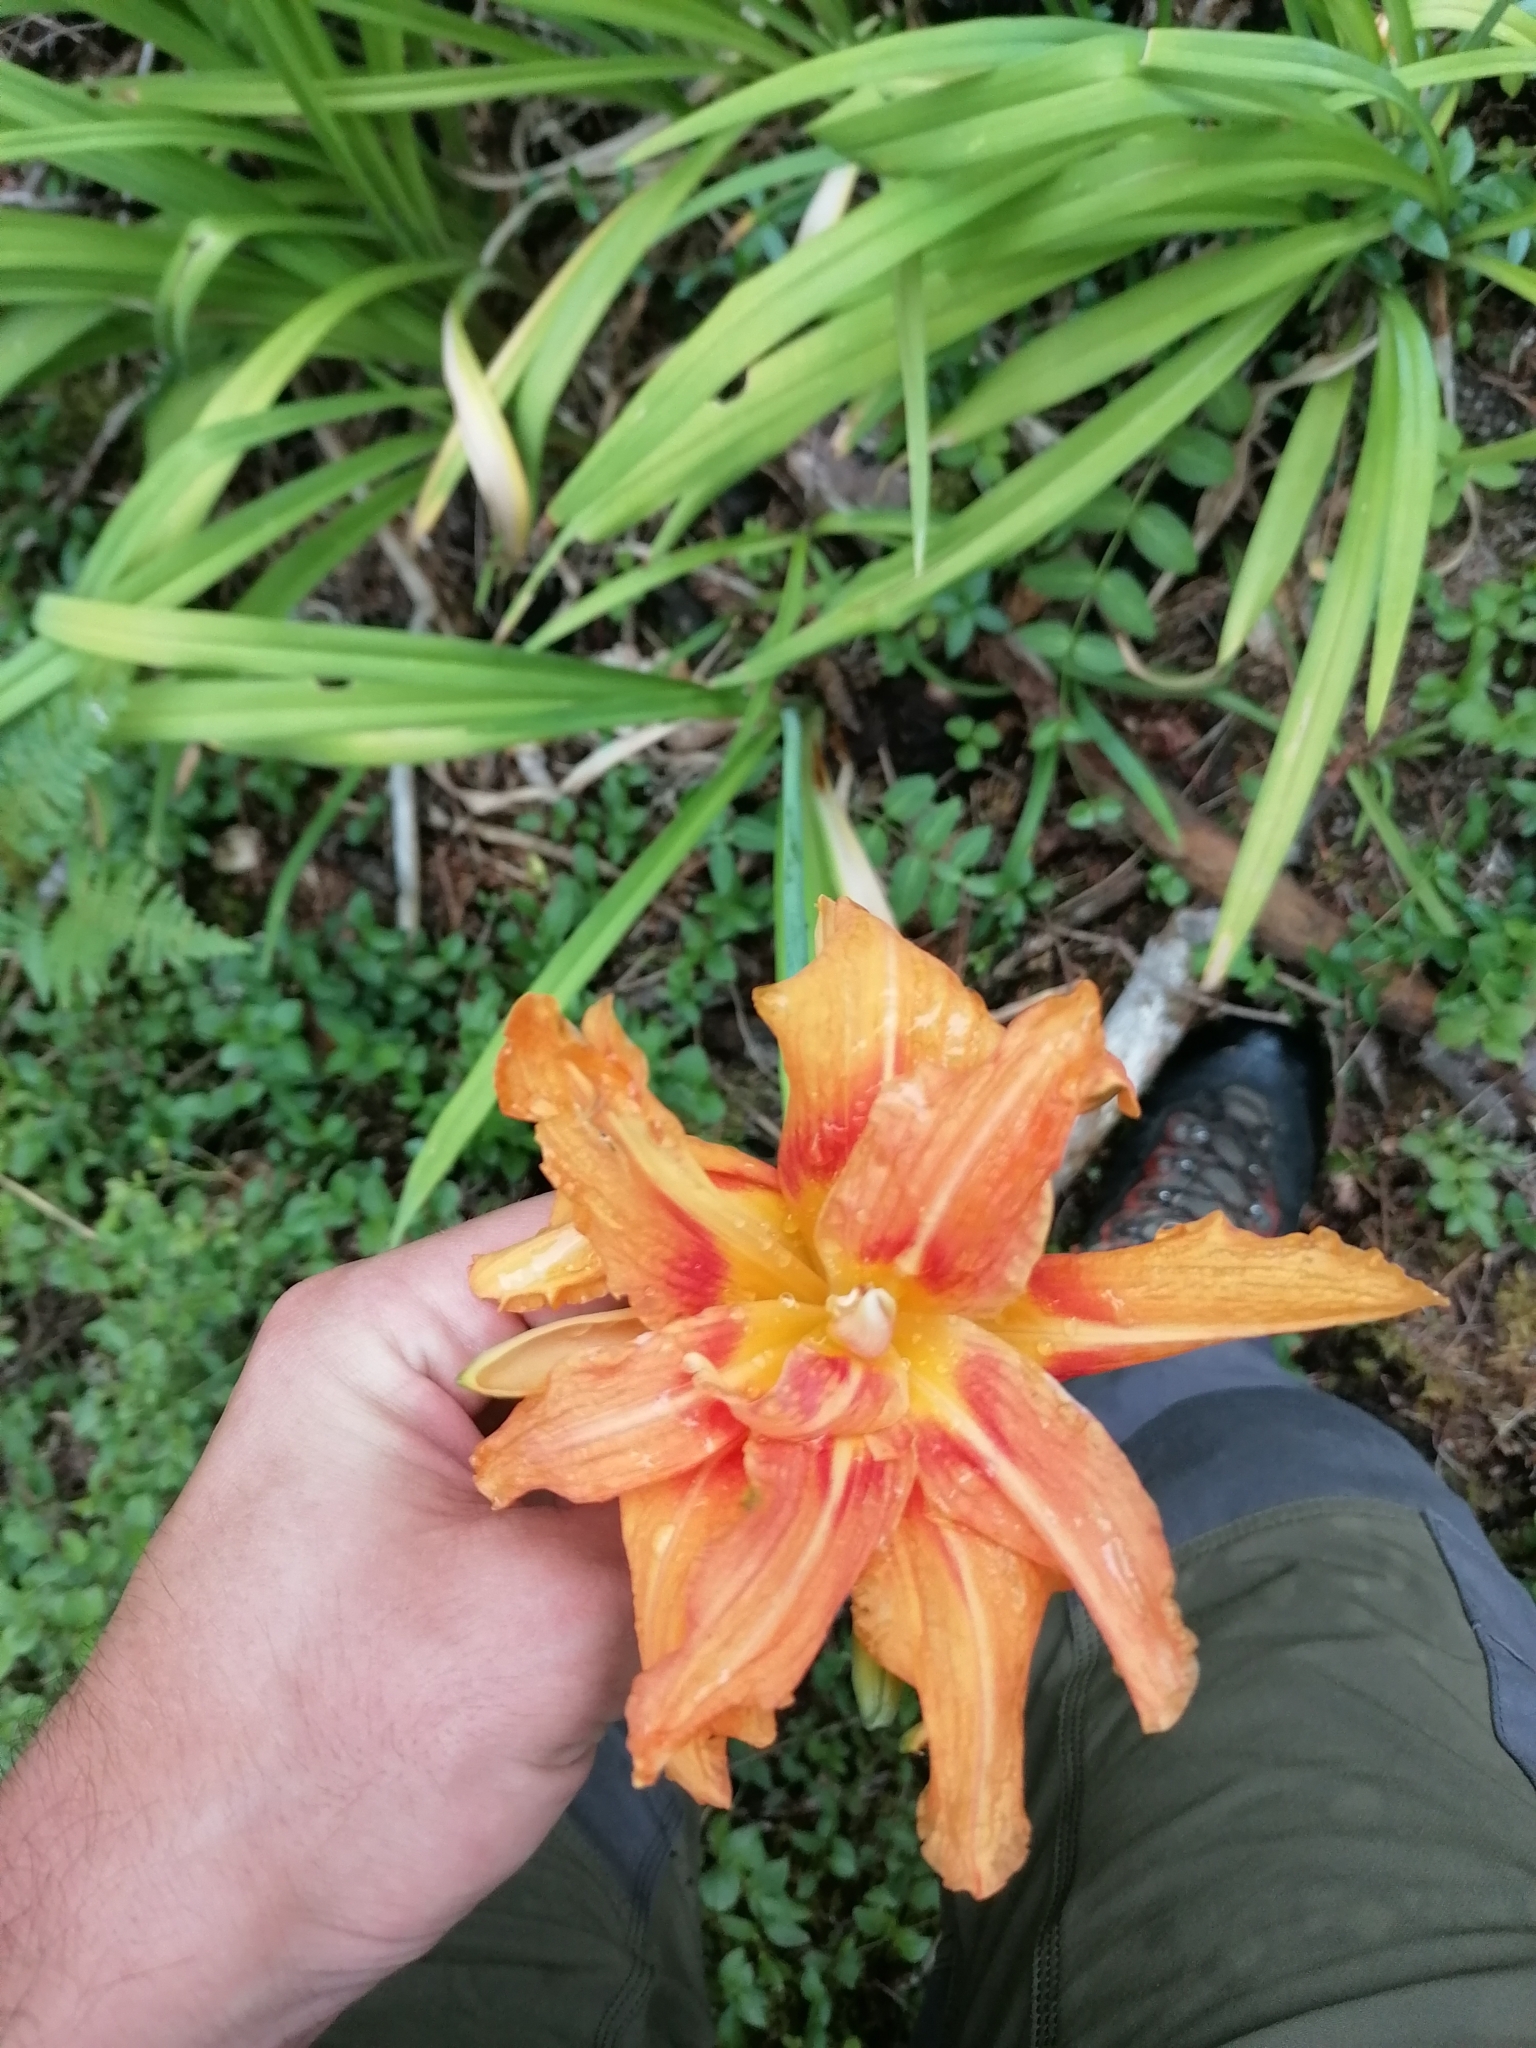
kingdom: Plantae
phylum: Tracheophyta
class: Liliopsida
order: Asparagales
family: Asphodelaceae
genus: Hemerocallis
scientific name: Hemerocallis fulva
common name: Orange day-lily
